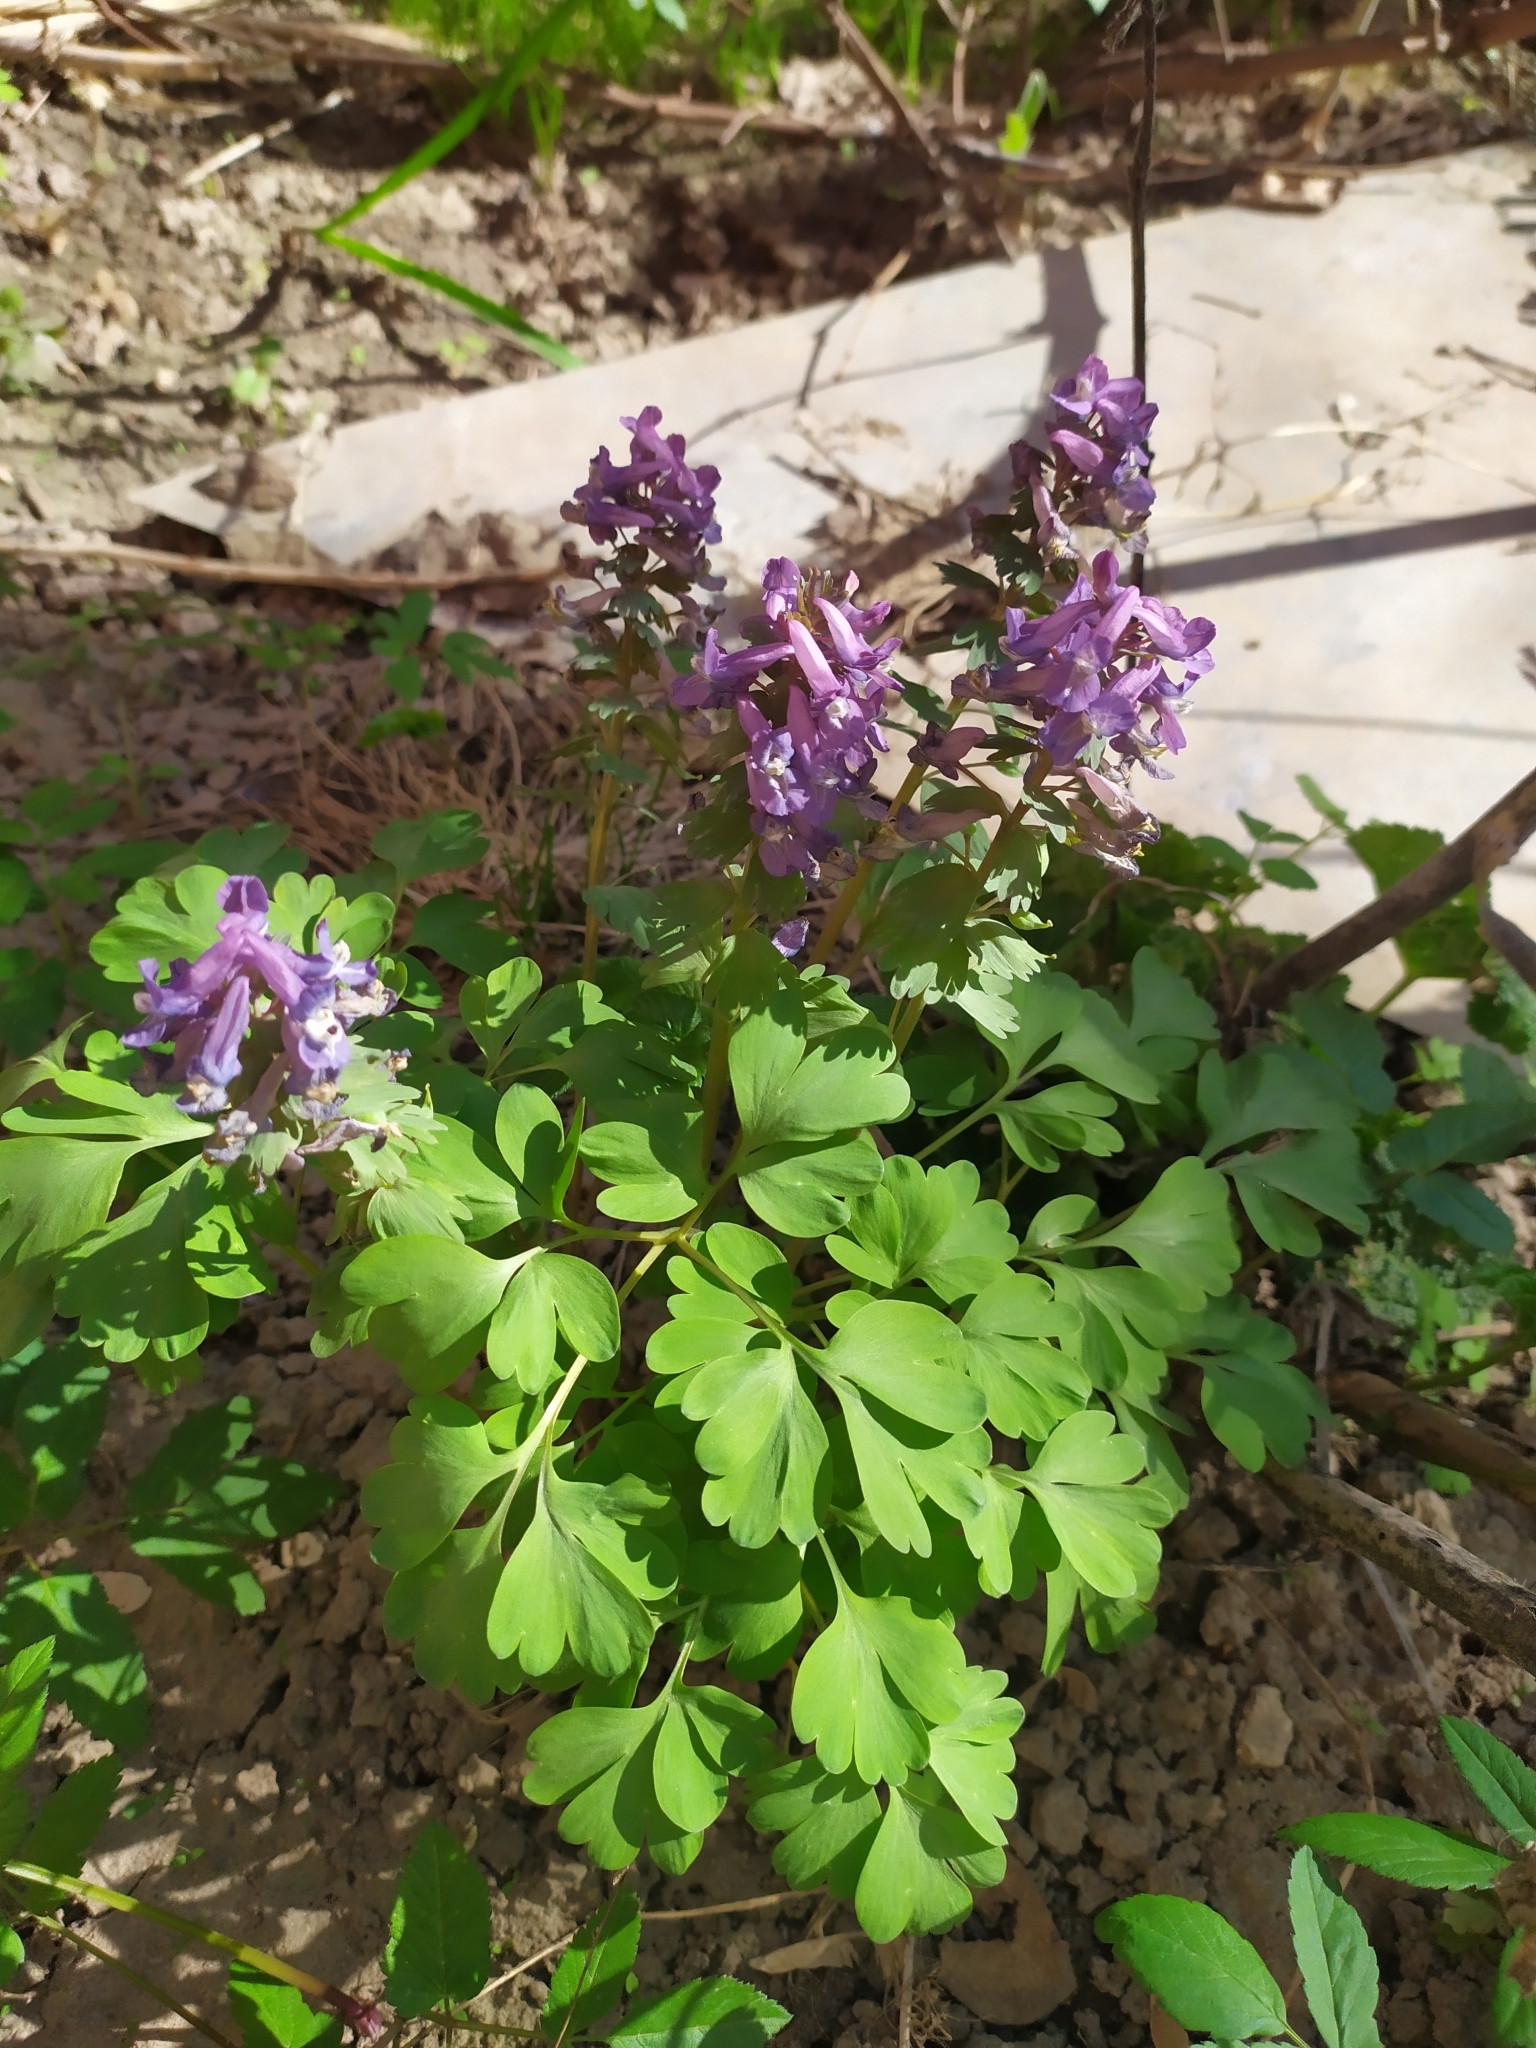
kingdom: Plantae
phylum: Tracheophyta
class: Magnoliopsida
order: Ranunculales
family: Papaveraceae
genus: Corydalis
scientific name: Corydalis solida
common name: Bird-in-a-bush
